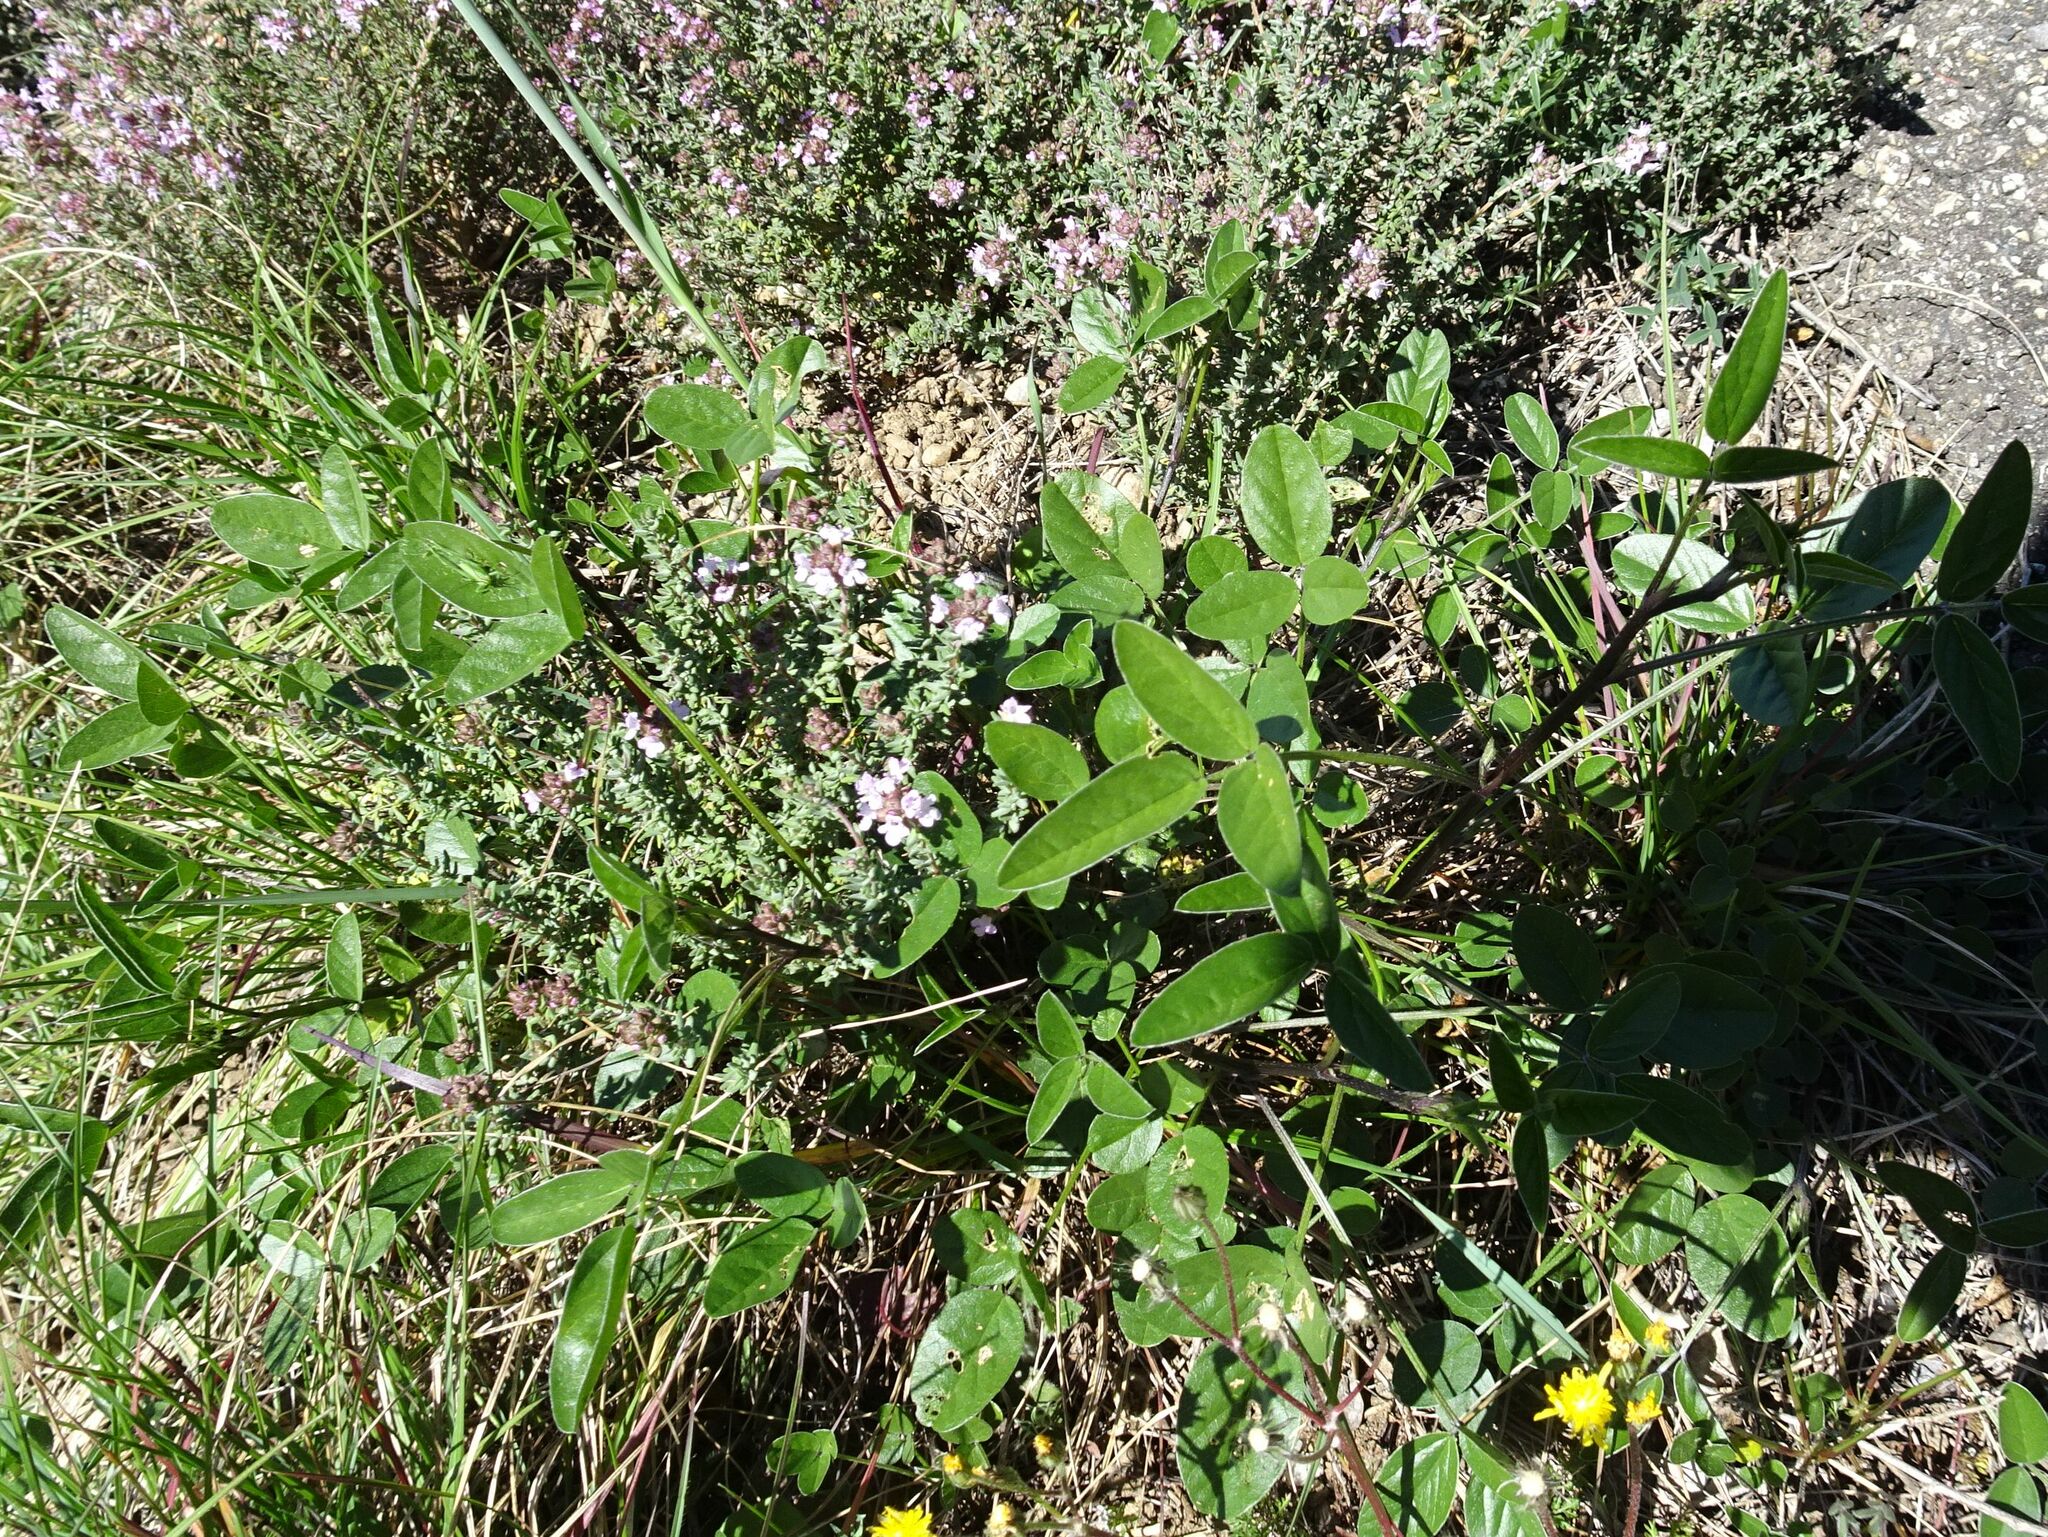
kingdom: Plantae
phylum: Tracheophyta
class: Magnoliopsida
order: Fabales
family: Fabaceae
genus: Bituminaria
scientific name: Bituminaria bituminosa
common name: Arabian pea
